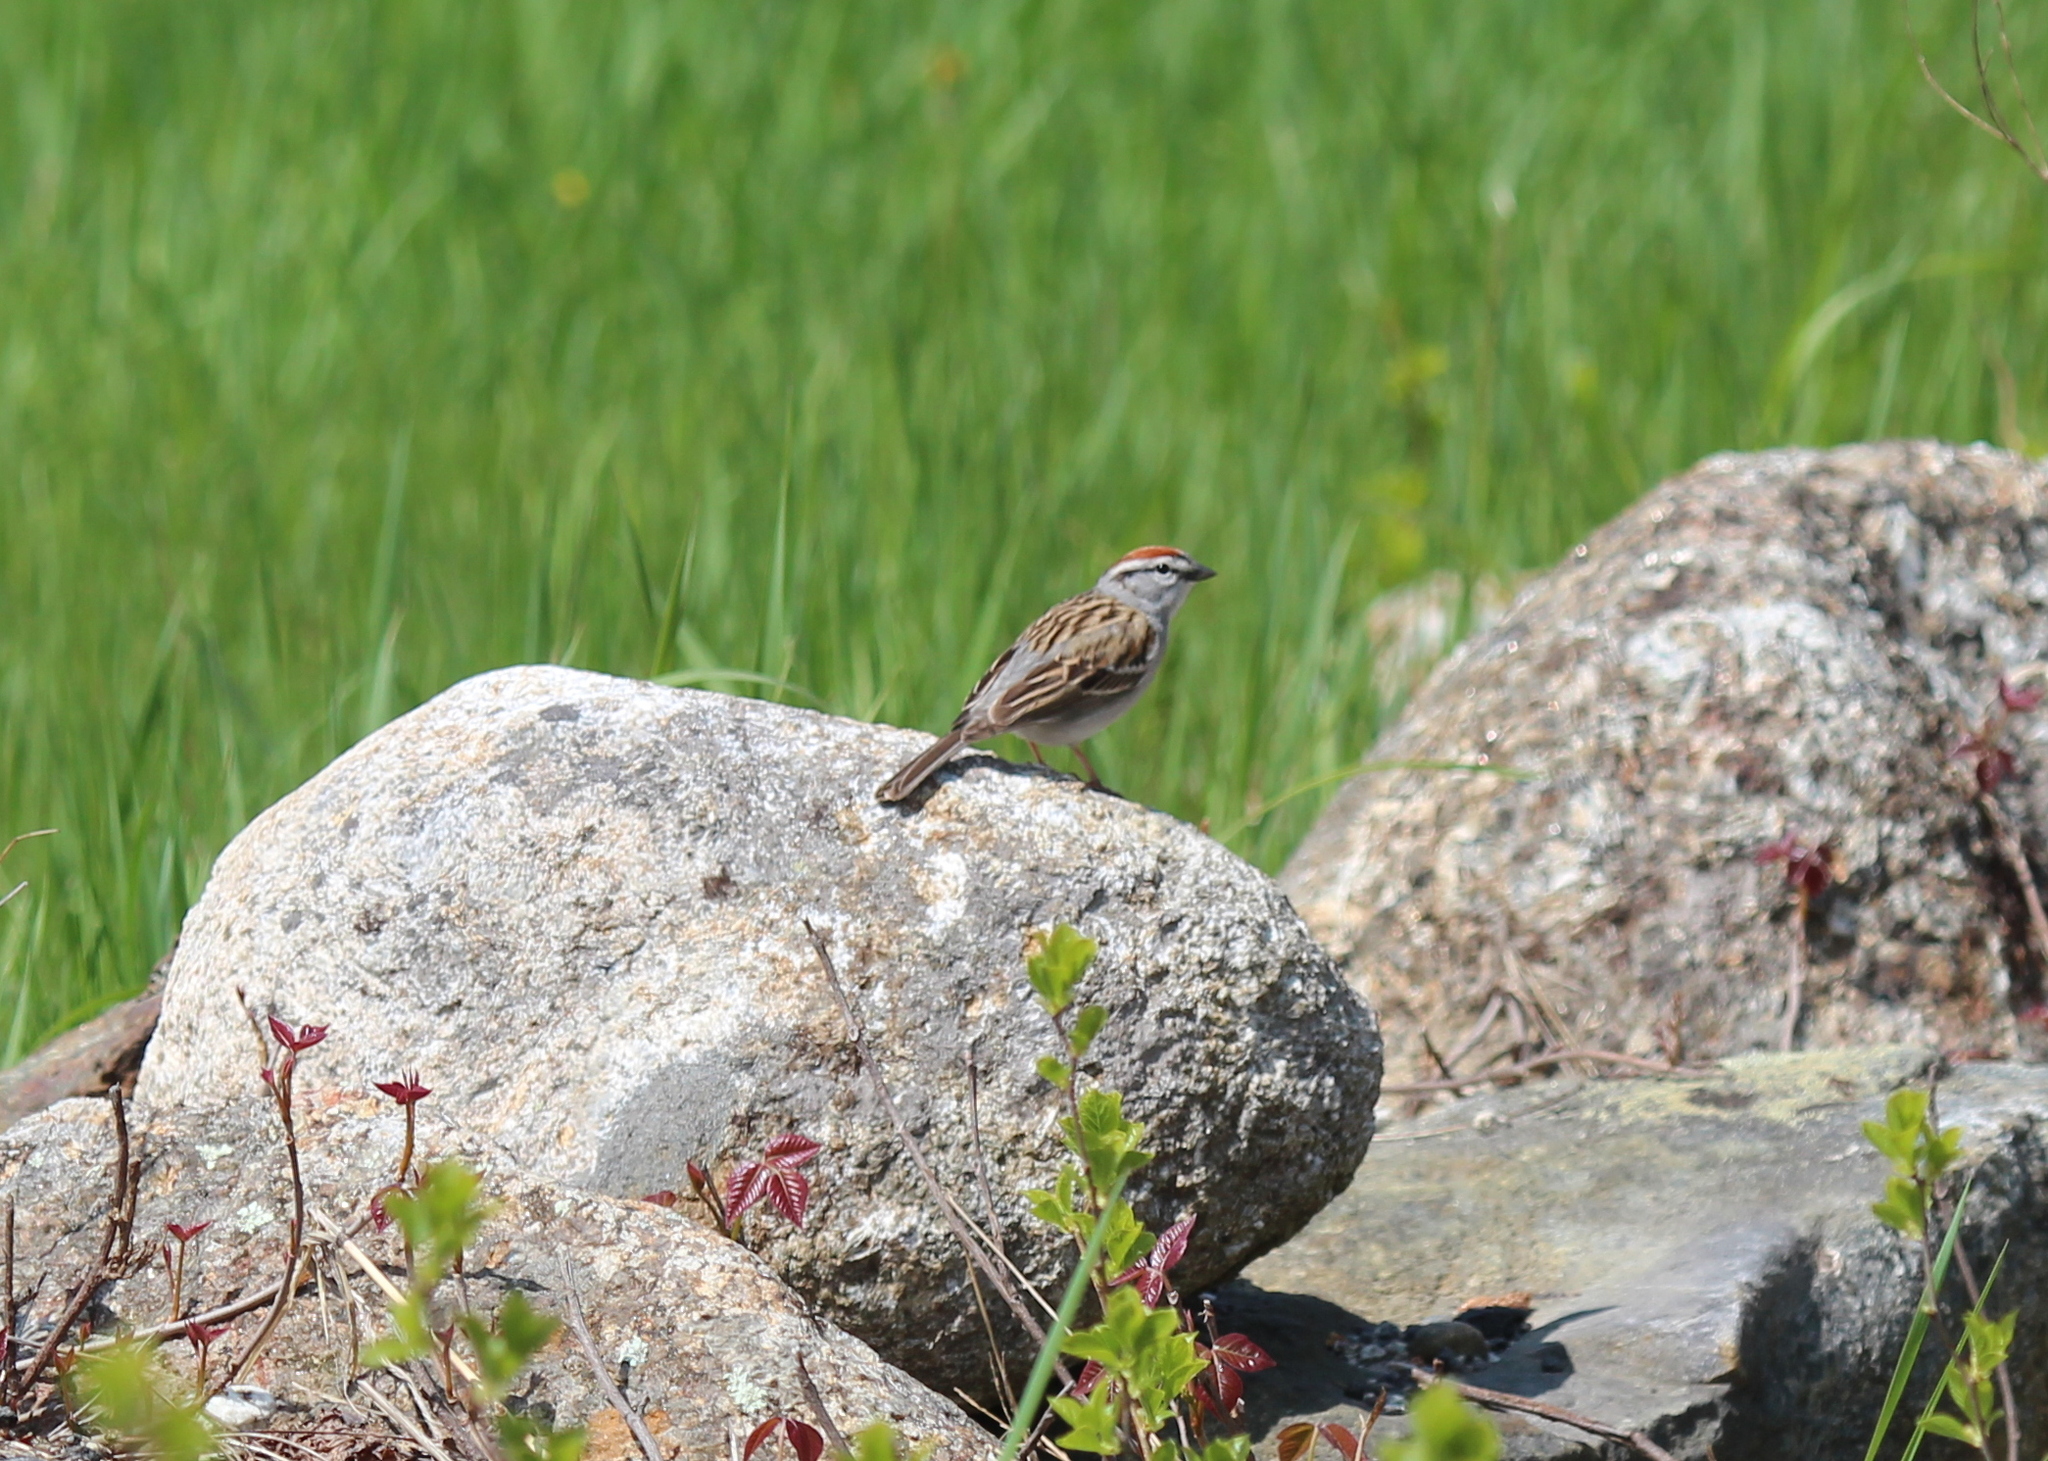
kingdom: Animalia
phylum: Chordata
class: Aves
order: Passeriformes
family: Passerellidae
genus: Spizella
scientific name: Spizella passerina
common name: Chipping sparrow
